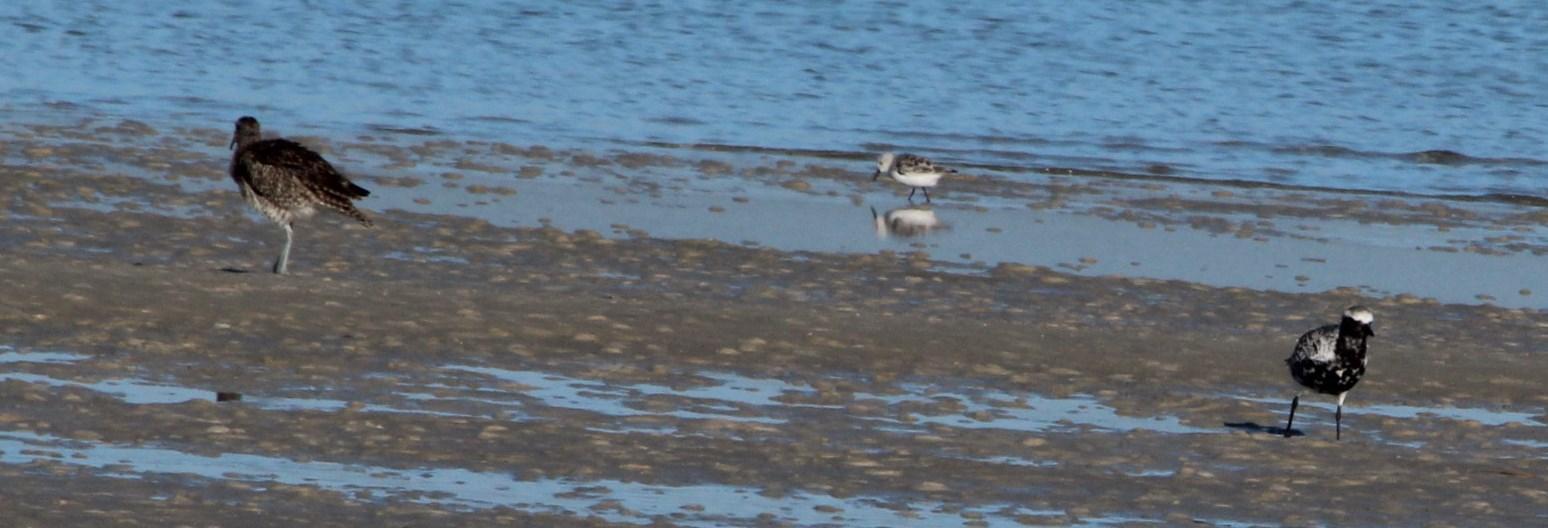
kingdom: Animalia
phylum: Chordata
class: Aves
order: Charadriiformes
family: Charadriidae
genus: Pluvialis
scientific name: Pluvialis squatarola
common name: Grey plover
